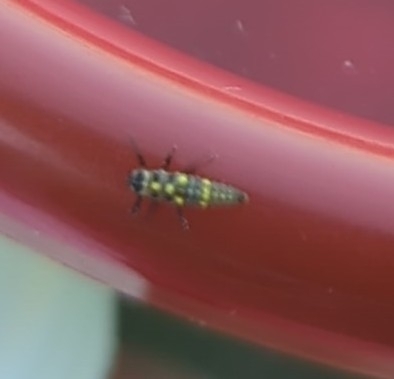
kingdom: Animalia
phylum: Arthropoda
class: Insecta
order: Coleoptera
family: Coccinellidae
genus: Olla
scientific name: Olla v-nigrum
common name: Ashy gray lady beetle
